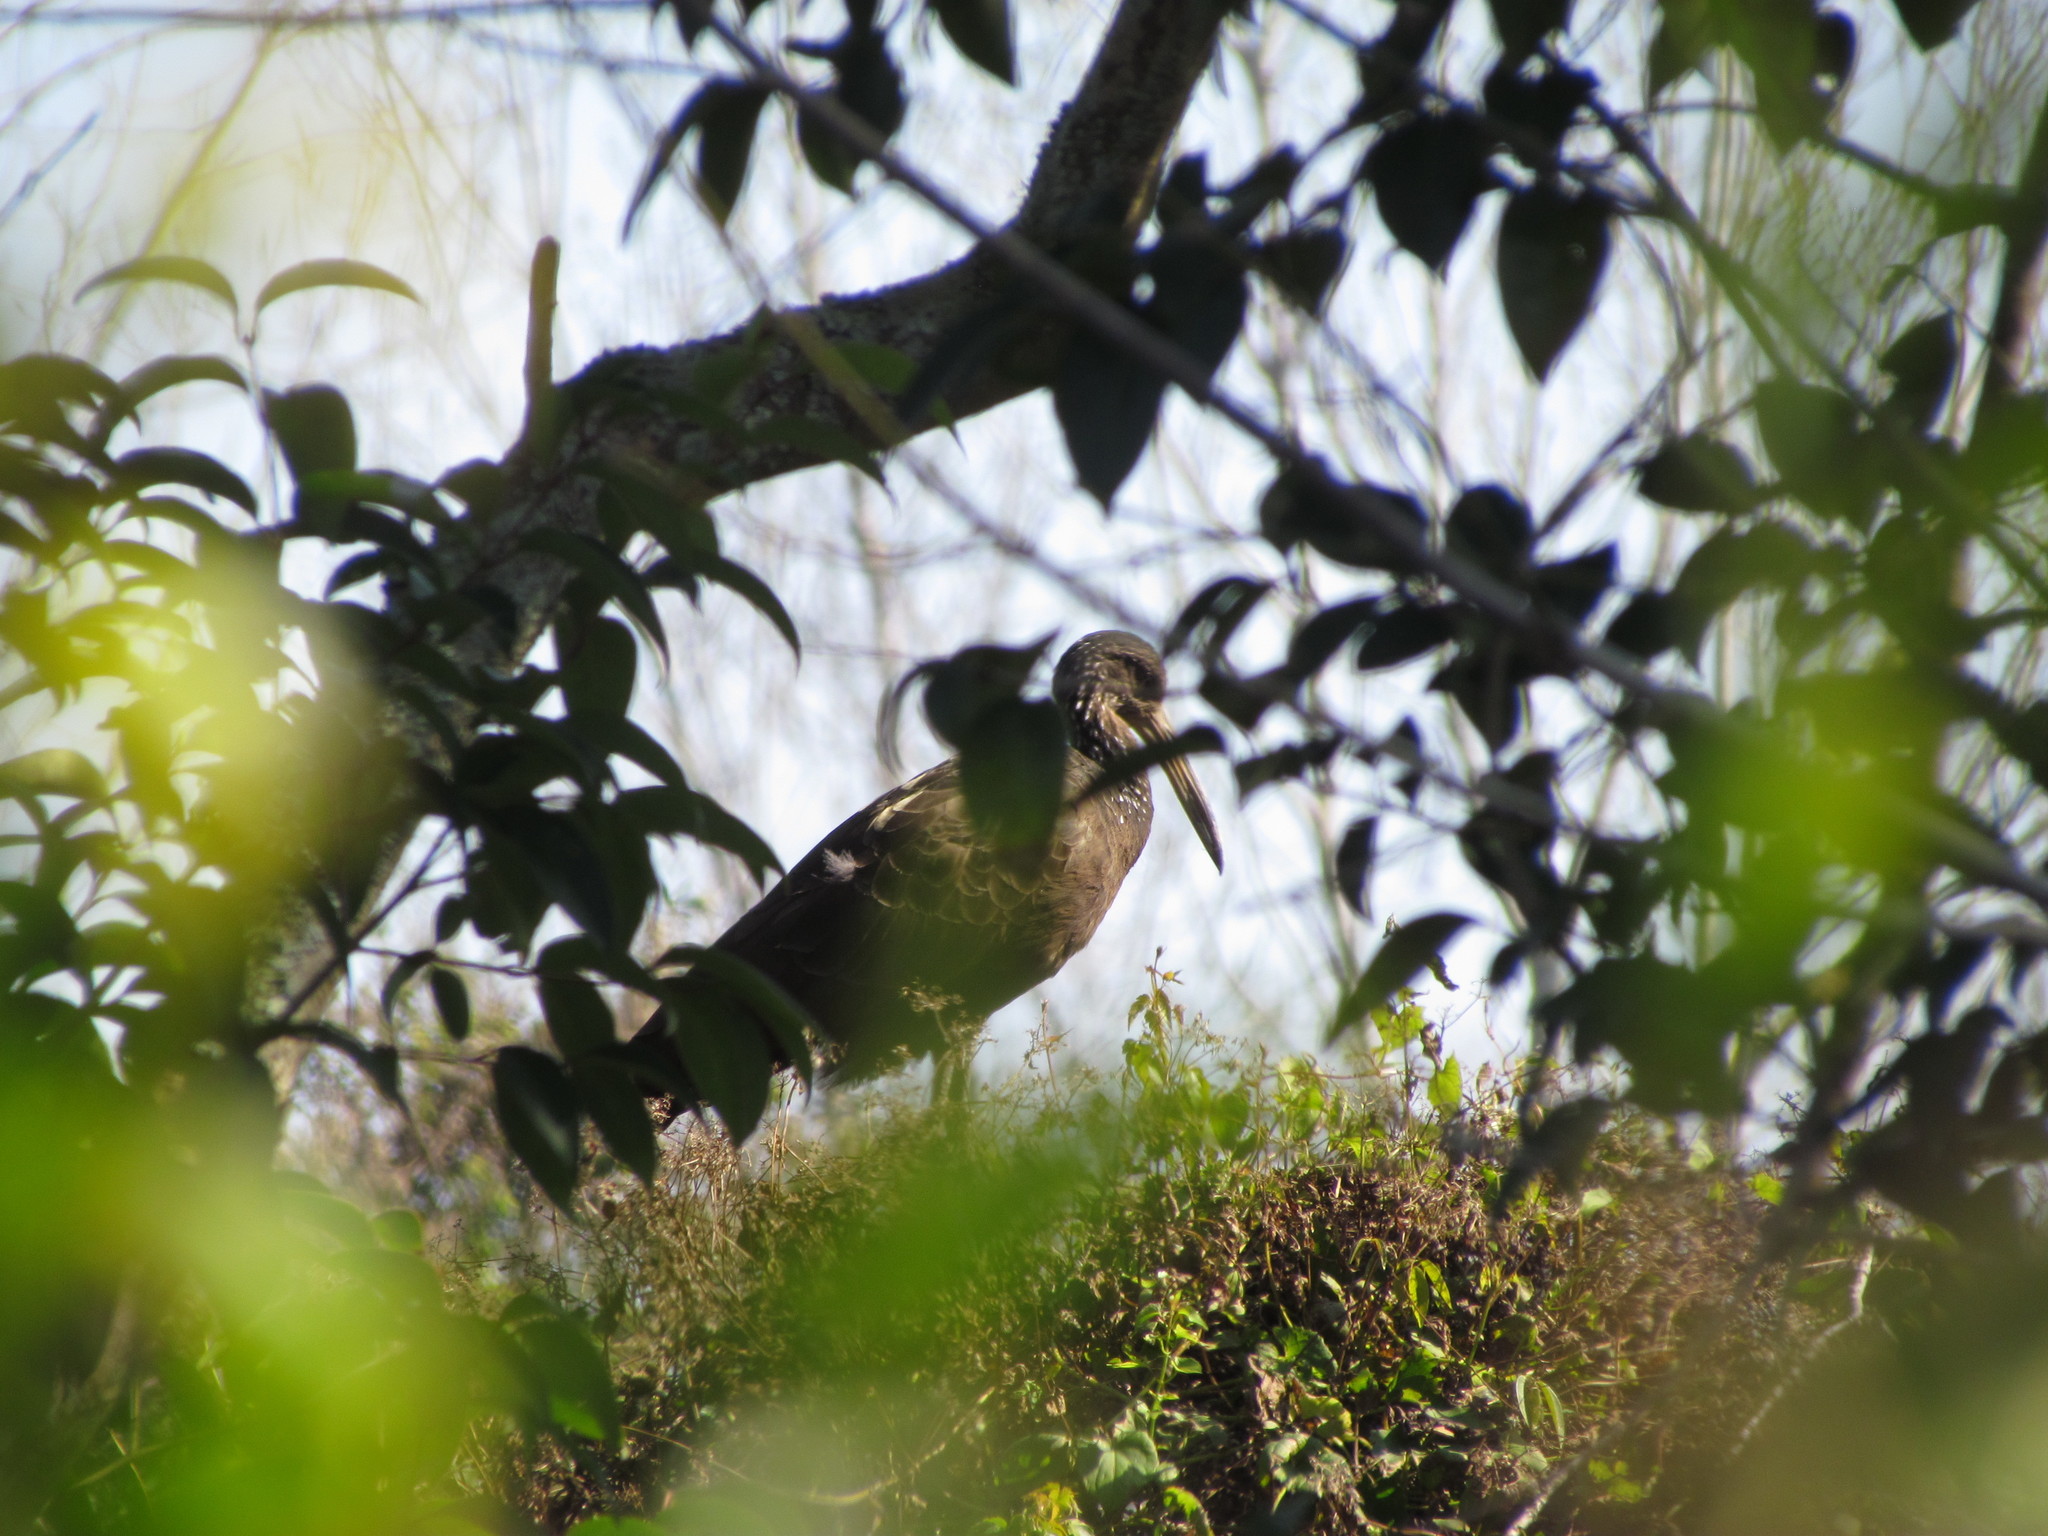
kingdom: Animalia
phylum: Chordata
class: Aves
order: Gruiformes
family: Aramidae
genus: Aramus
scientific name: Aramus guarauna
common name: Limpkin
